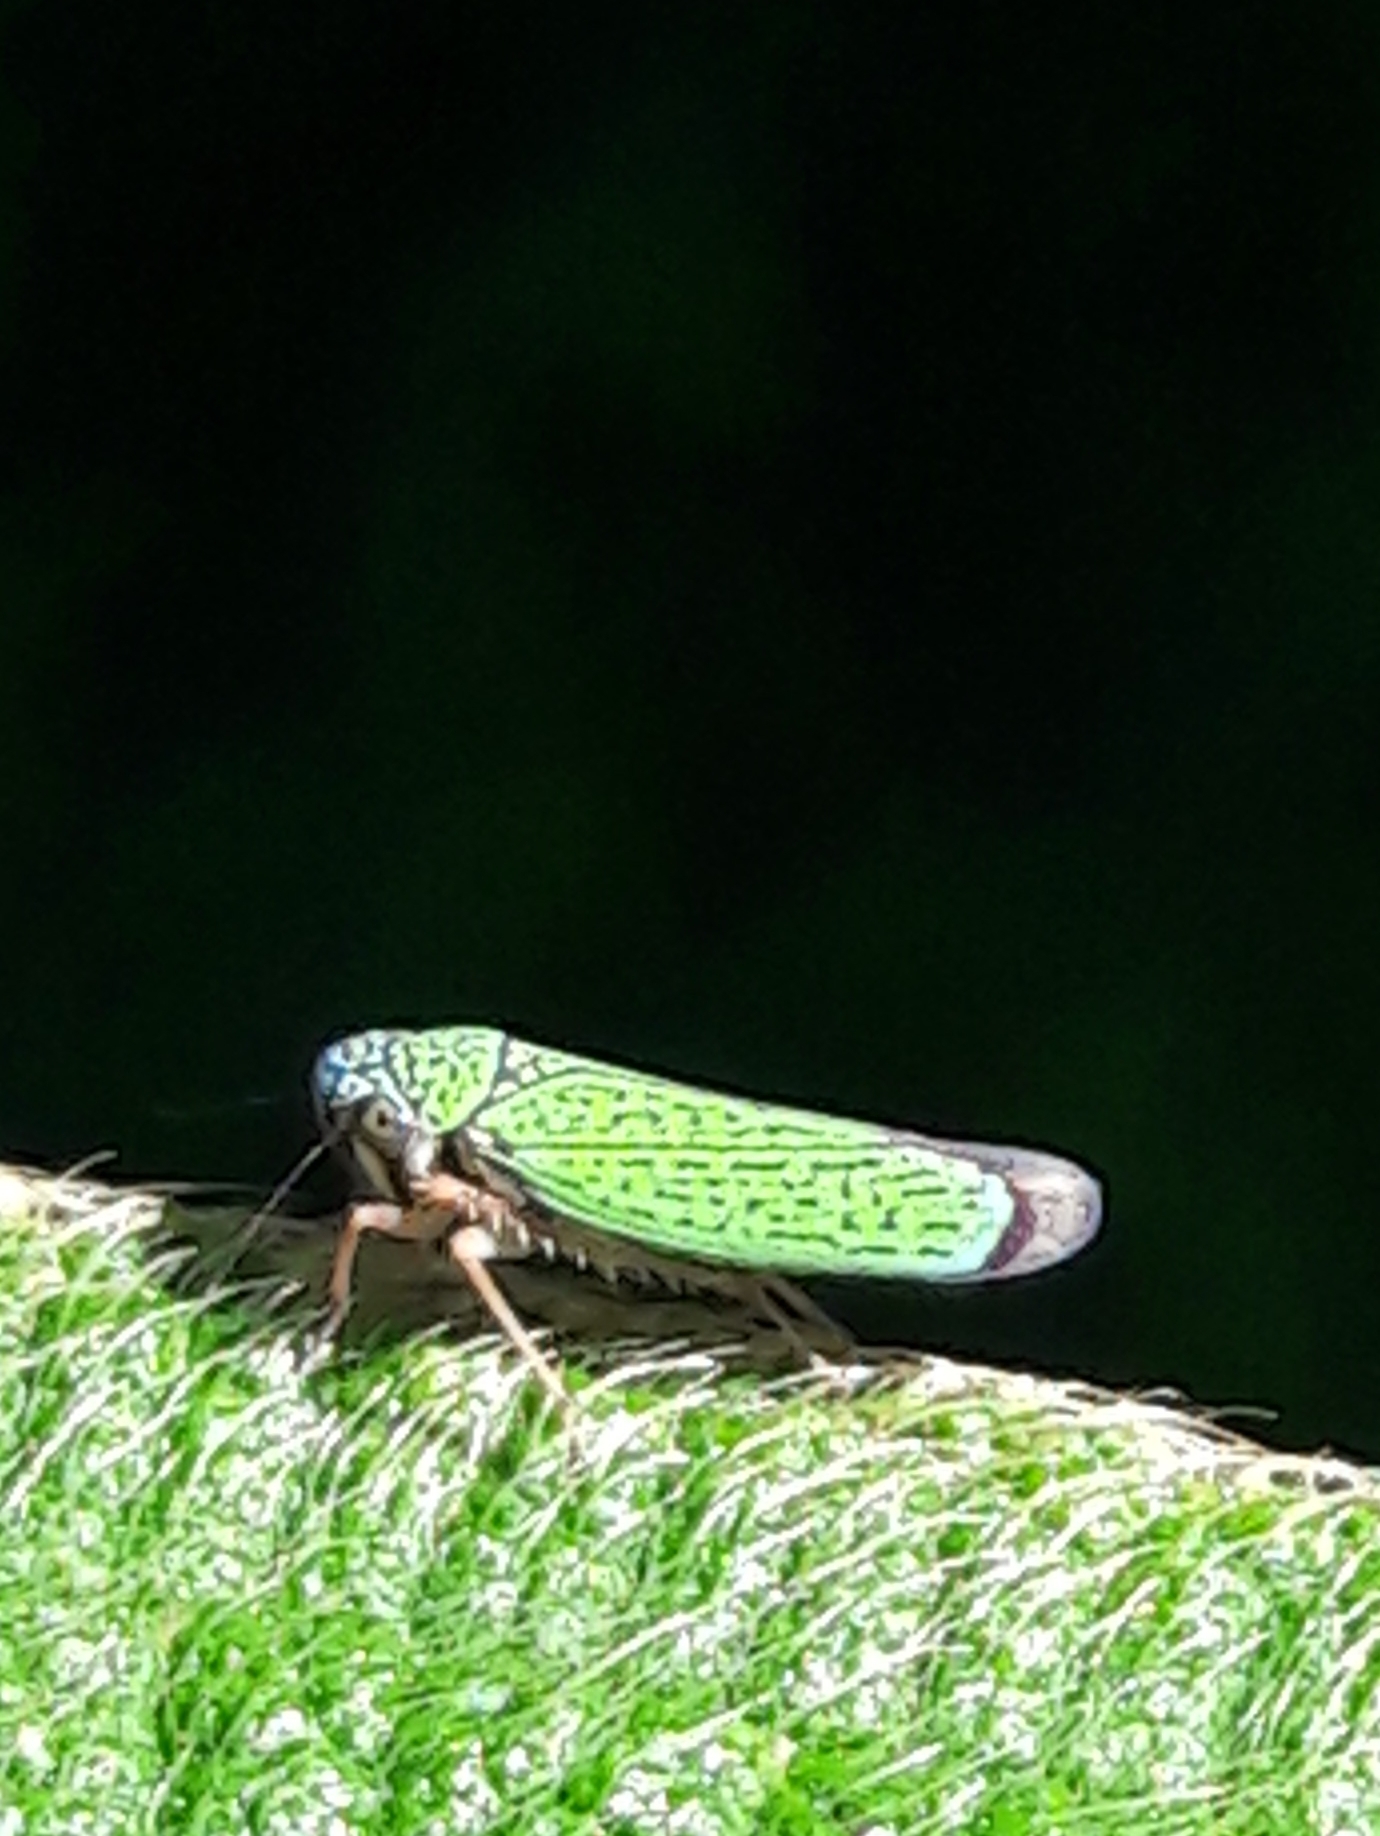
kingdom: Animalia
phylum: Arthropoda
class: Insecta
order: Hemiptera
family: Cicadellidae
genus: Versigonalia
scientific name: Versigonalia vermiculata
